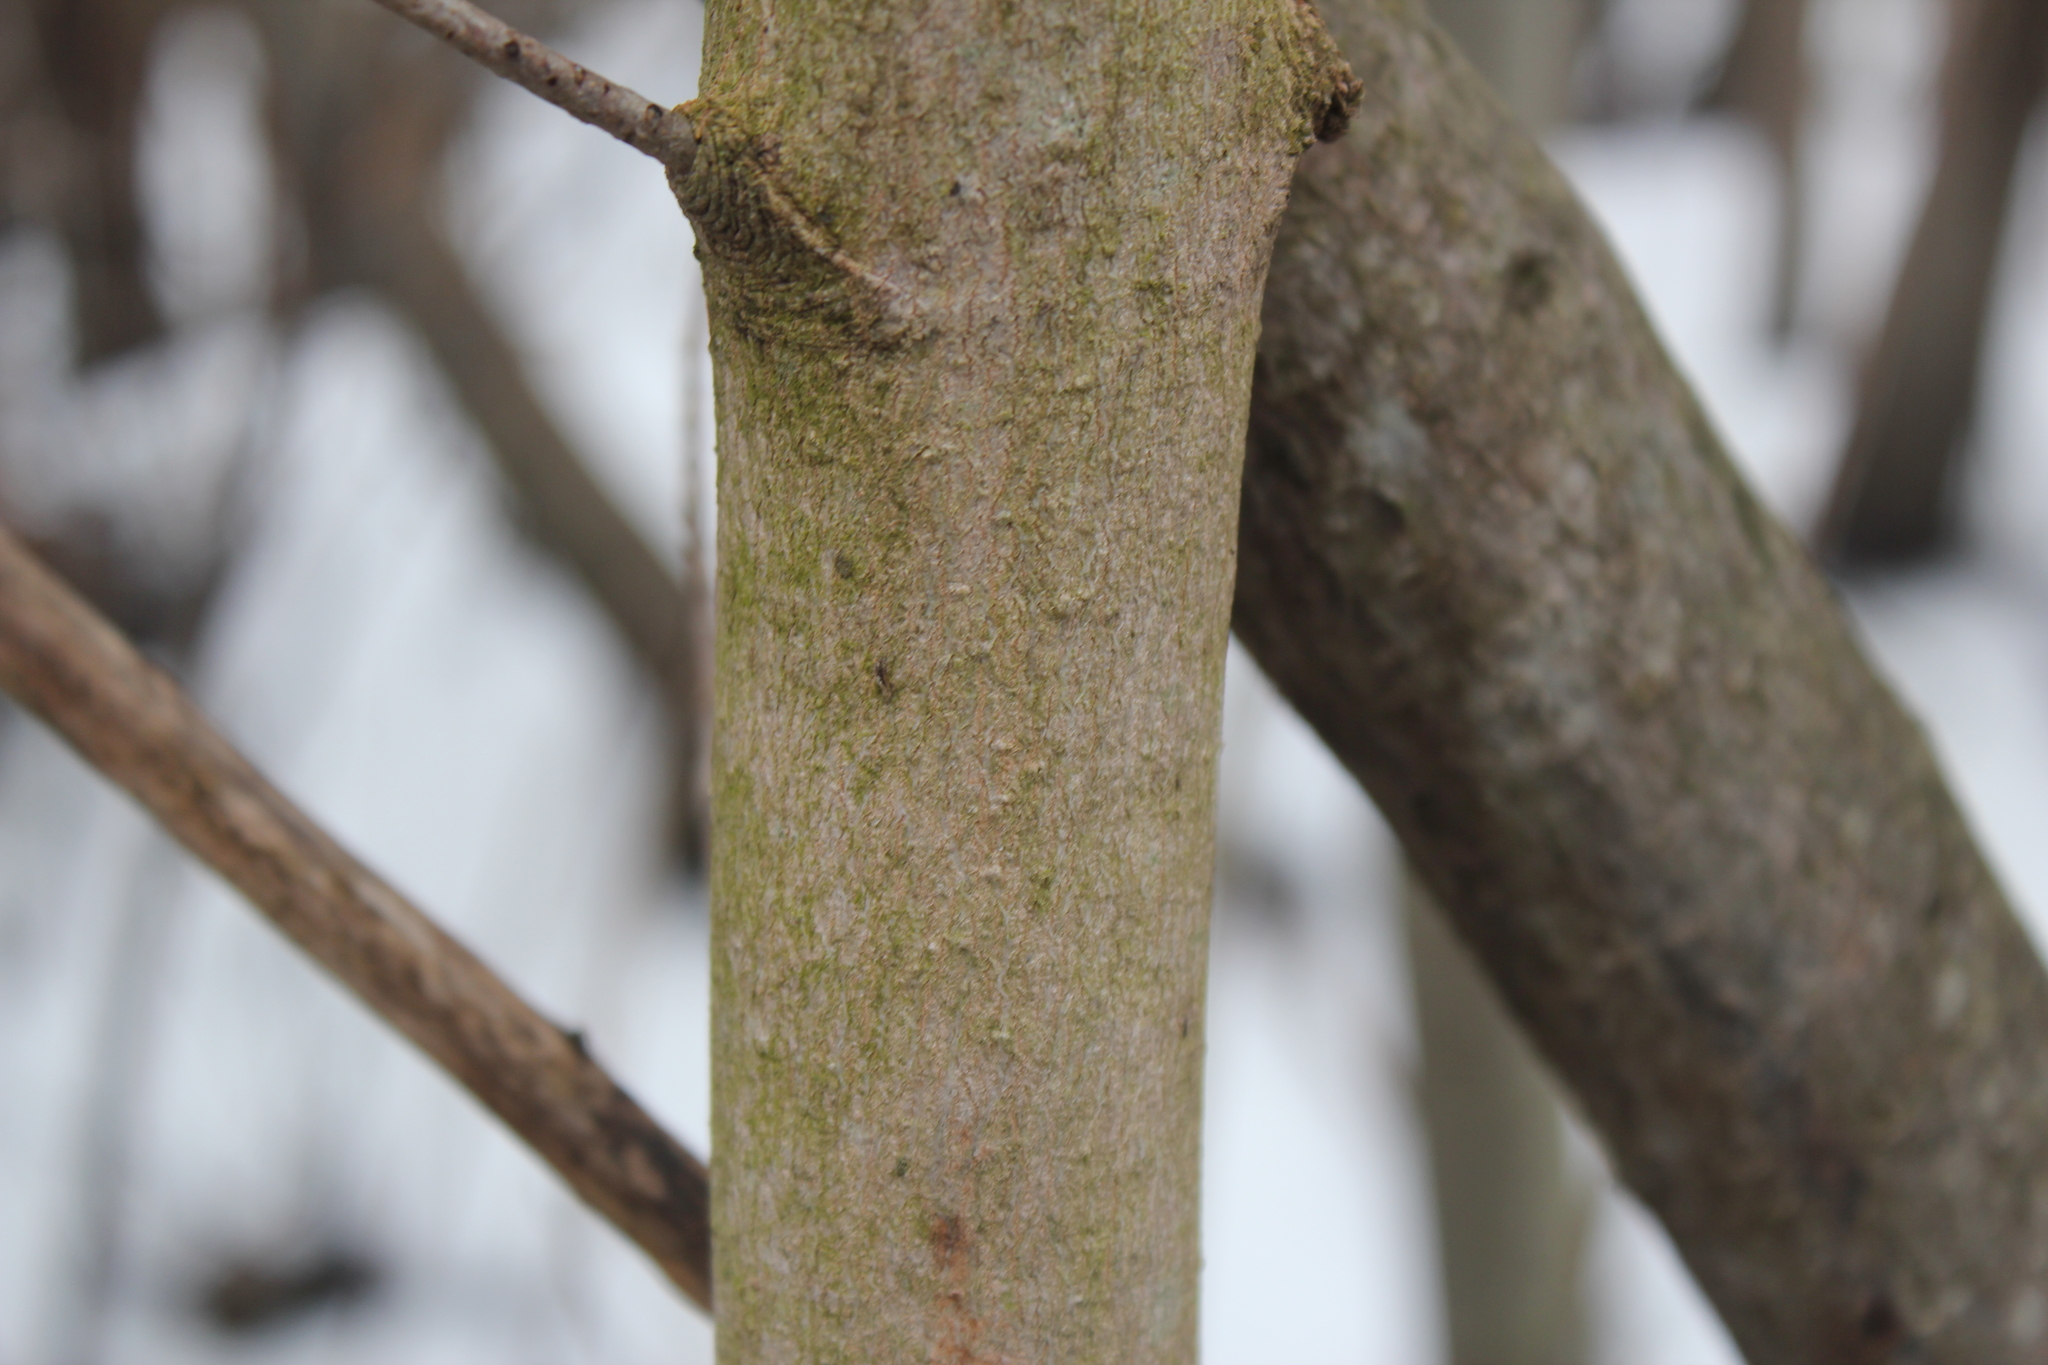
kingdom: Plantae
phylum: Tracheophyta
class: Magnoliopsida
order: Sapindales
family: Sapindaceae
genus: Acer
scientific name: Acer saccharum
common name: Sugar maple
